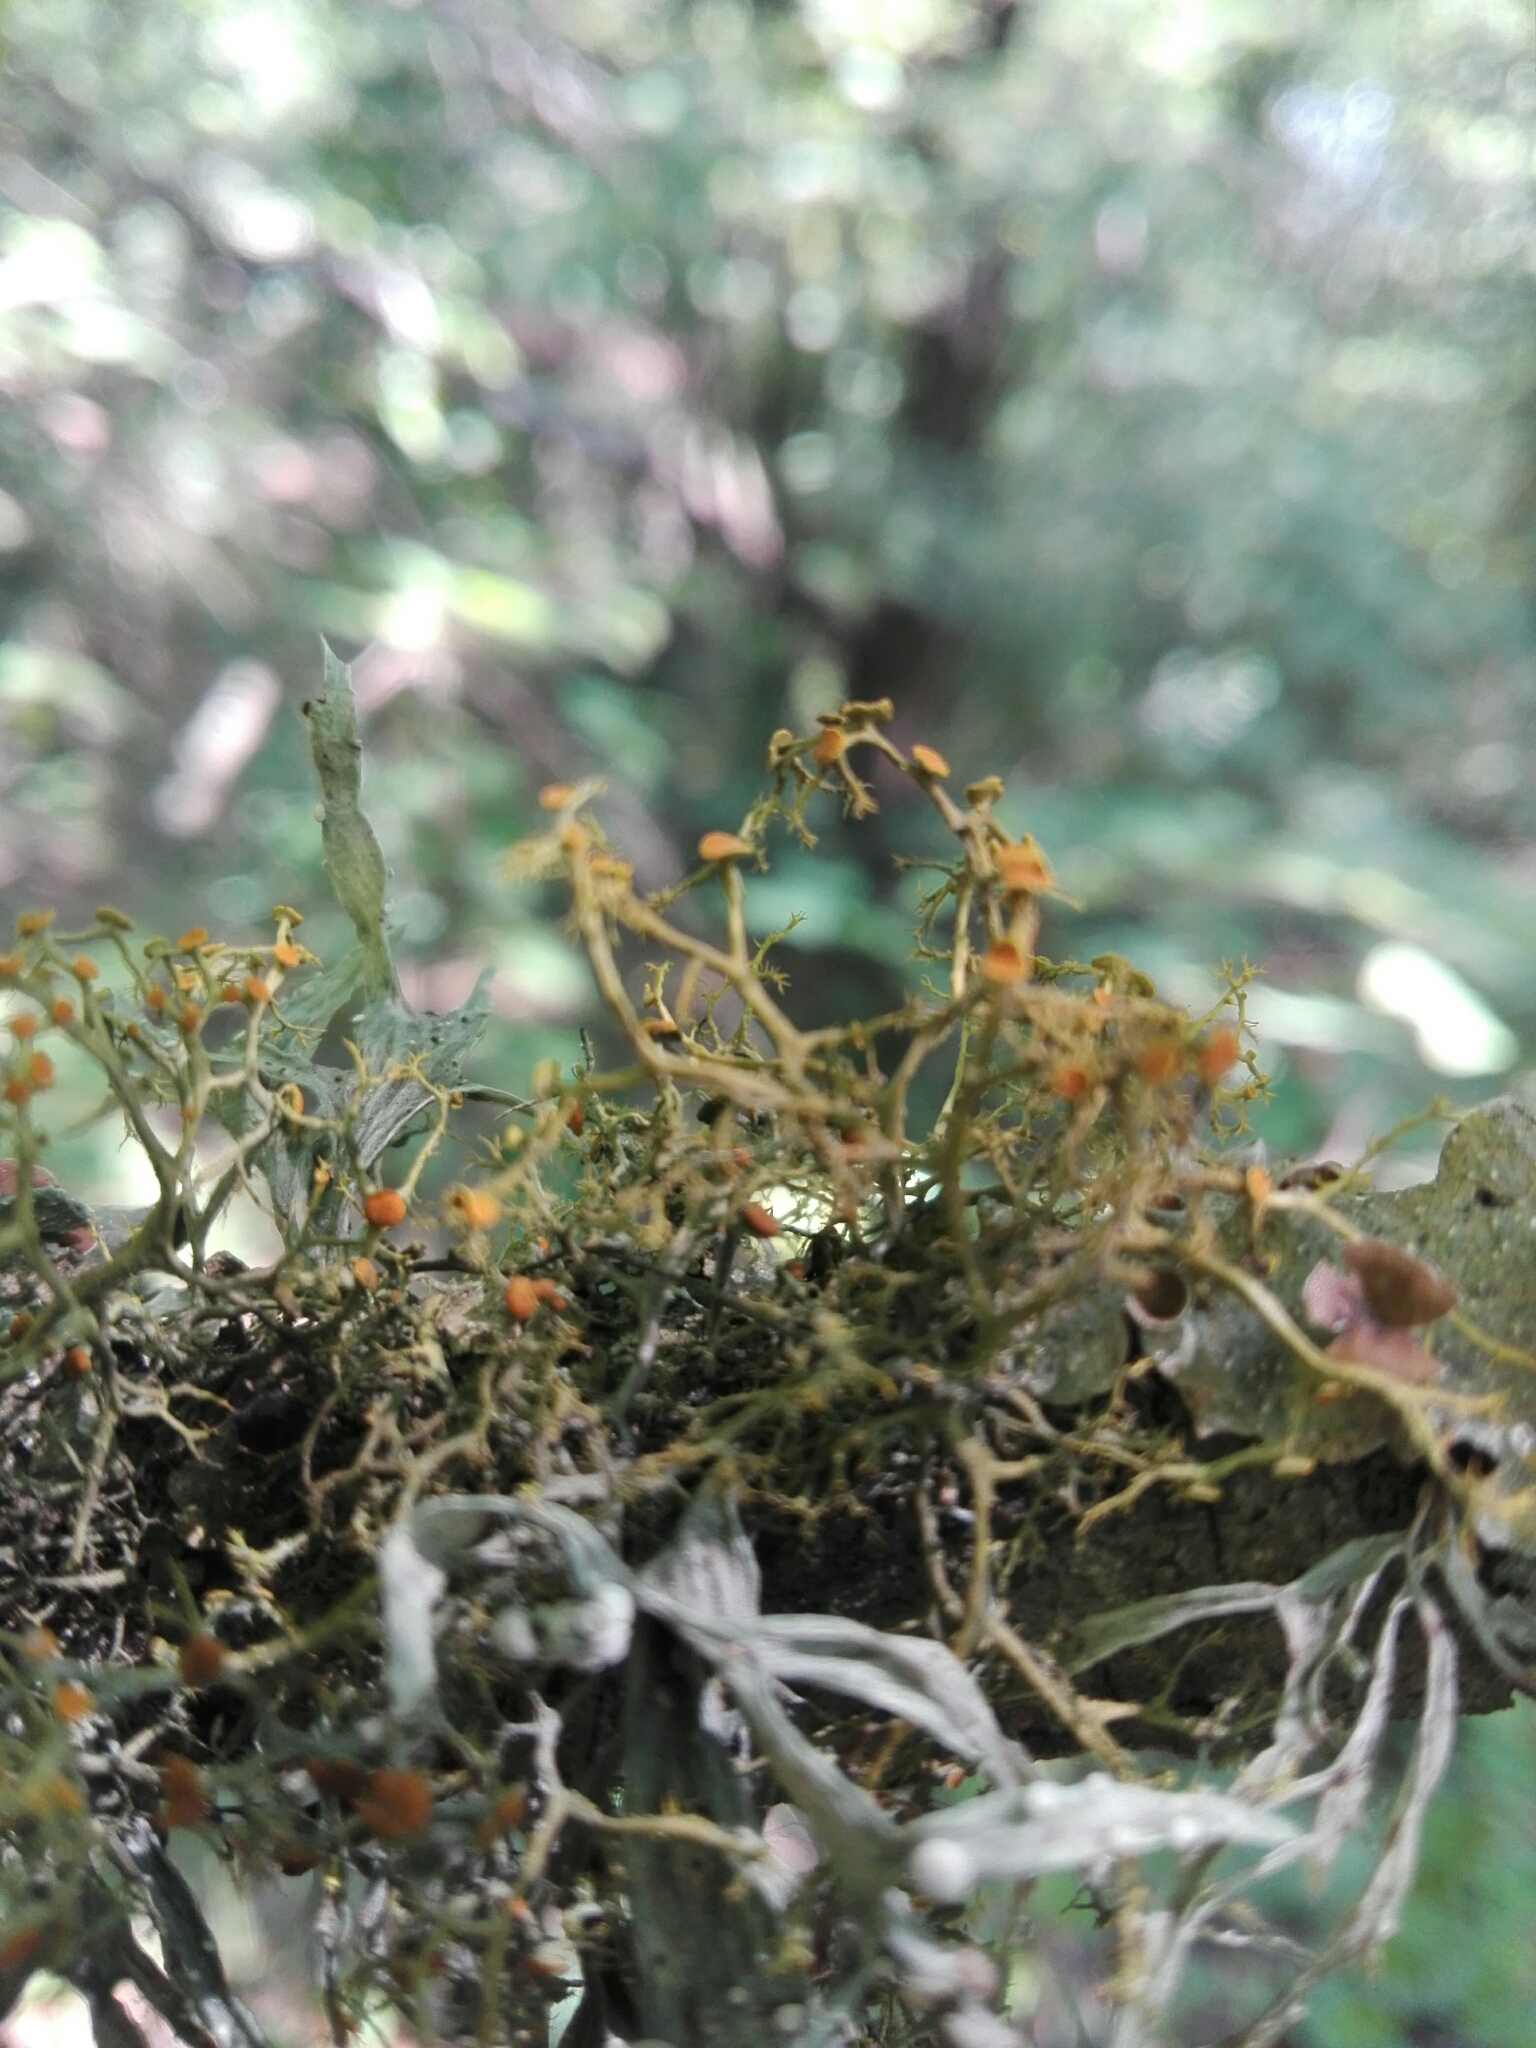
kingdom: Fungi
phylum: Ascomycota
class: Lecanoromycetes
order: Teloschistales
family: Teloschistaceae
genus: Teloschistes
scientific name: Teloschistes exilis
